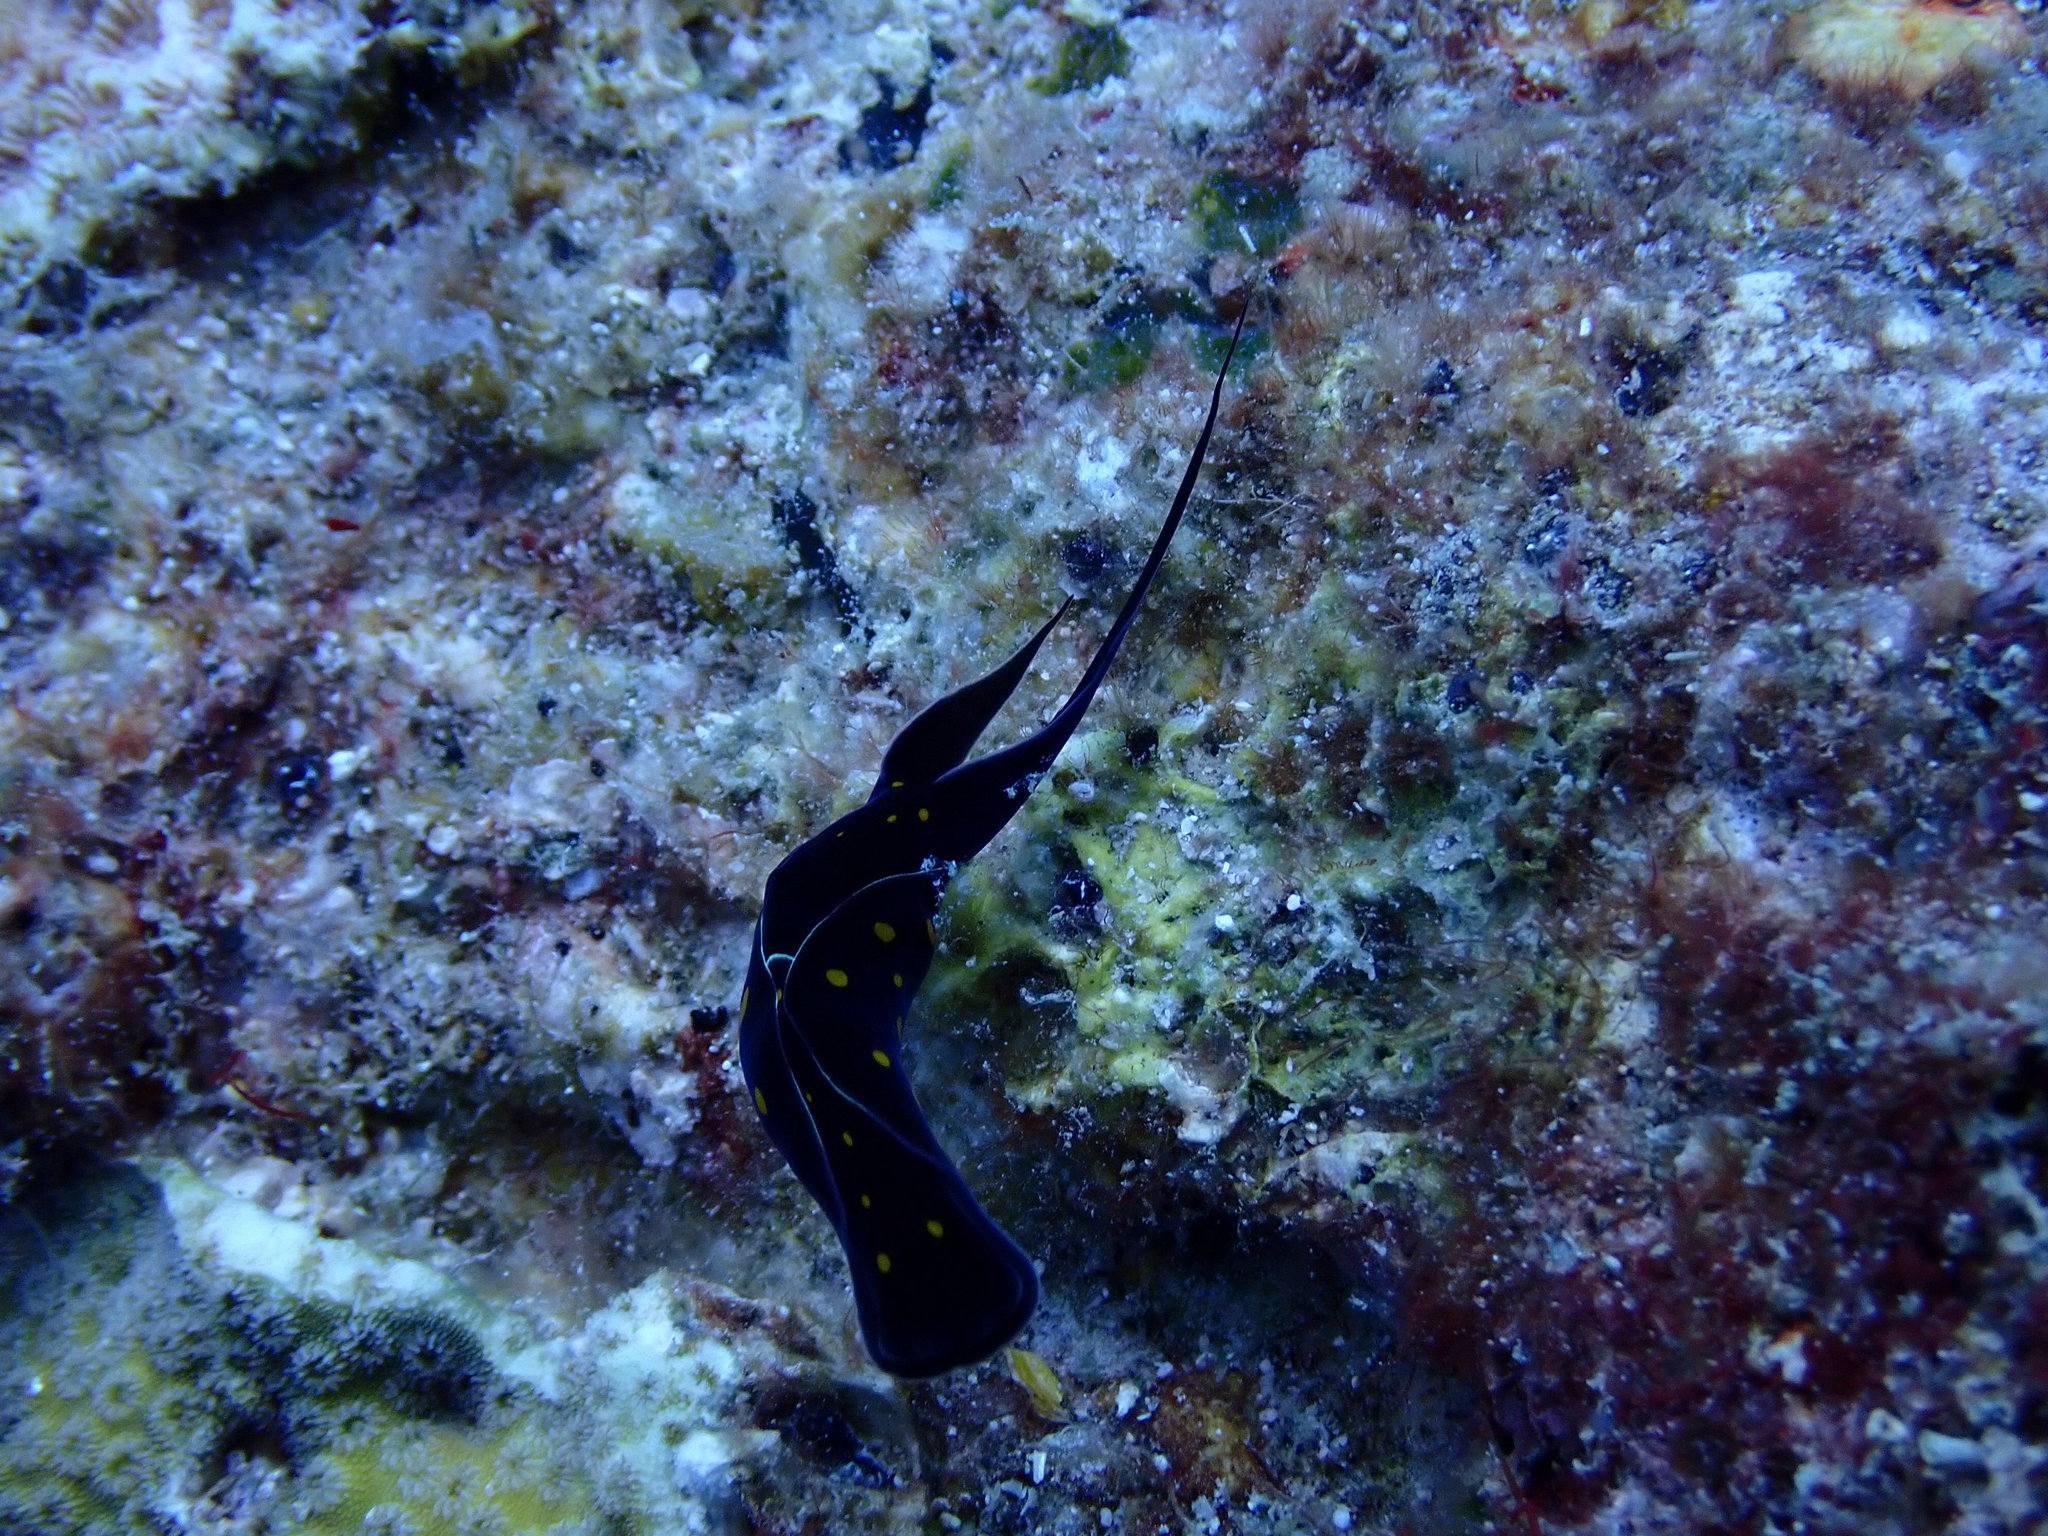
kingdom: Animalia
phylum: Mollusca
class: Gastropoda
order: Cephalaspidea
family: Aglajidae
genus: Chelidonura
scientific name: Chelidonura punctata
